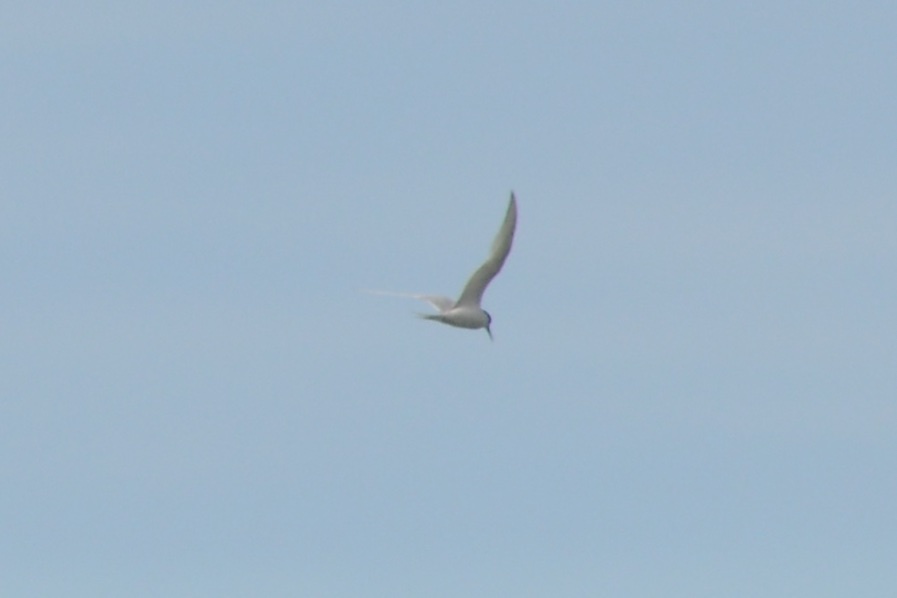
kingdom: Animalia
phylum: Chordata
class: Aves
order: Charadriiformes
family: Laridae
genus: Sterna
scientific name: Sterna striata
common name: White-fronted tern
